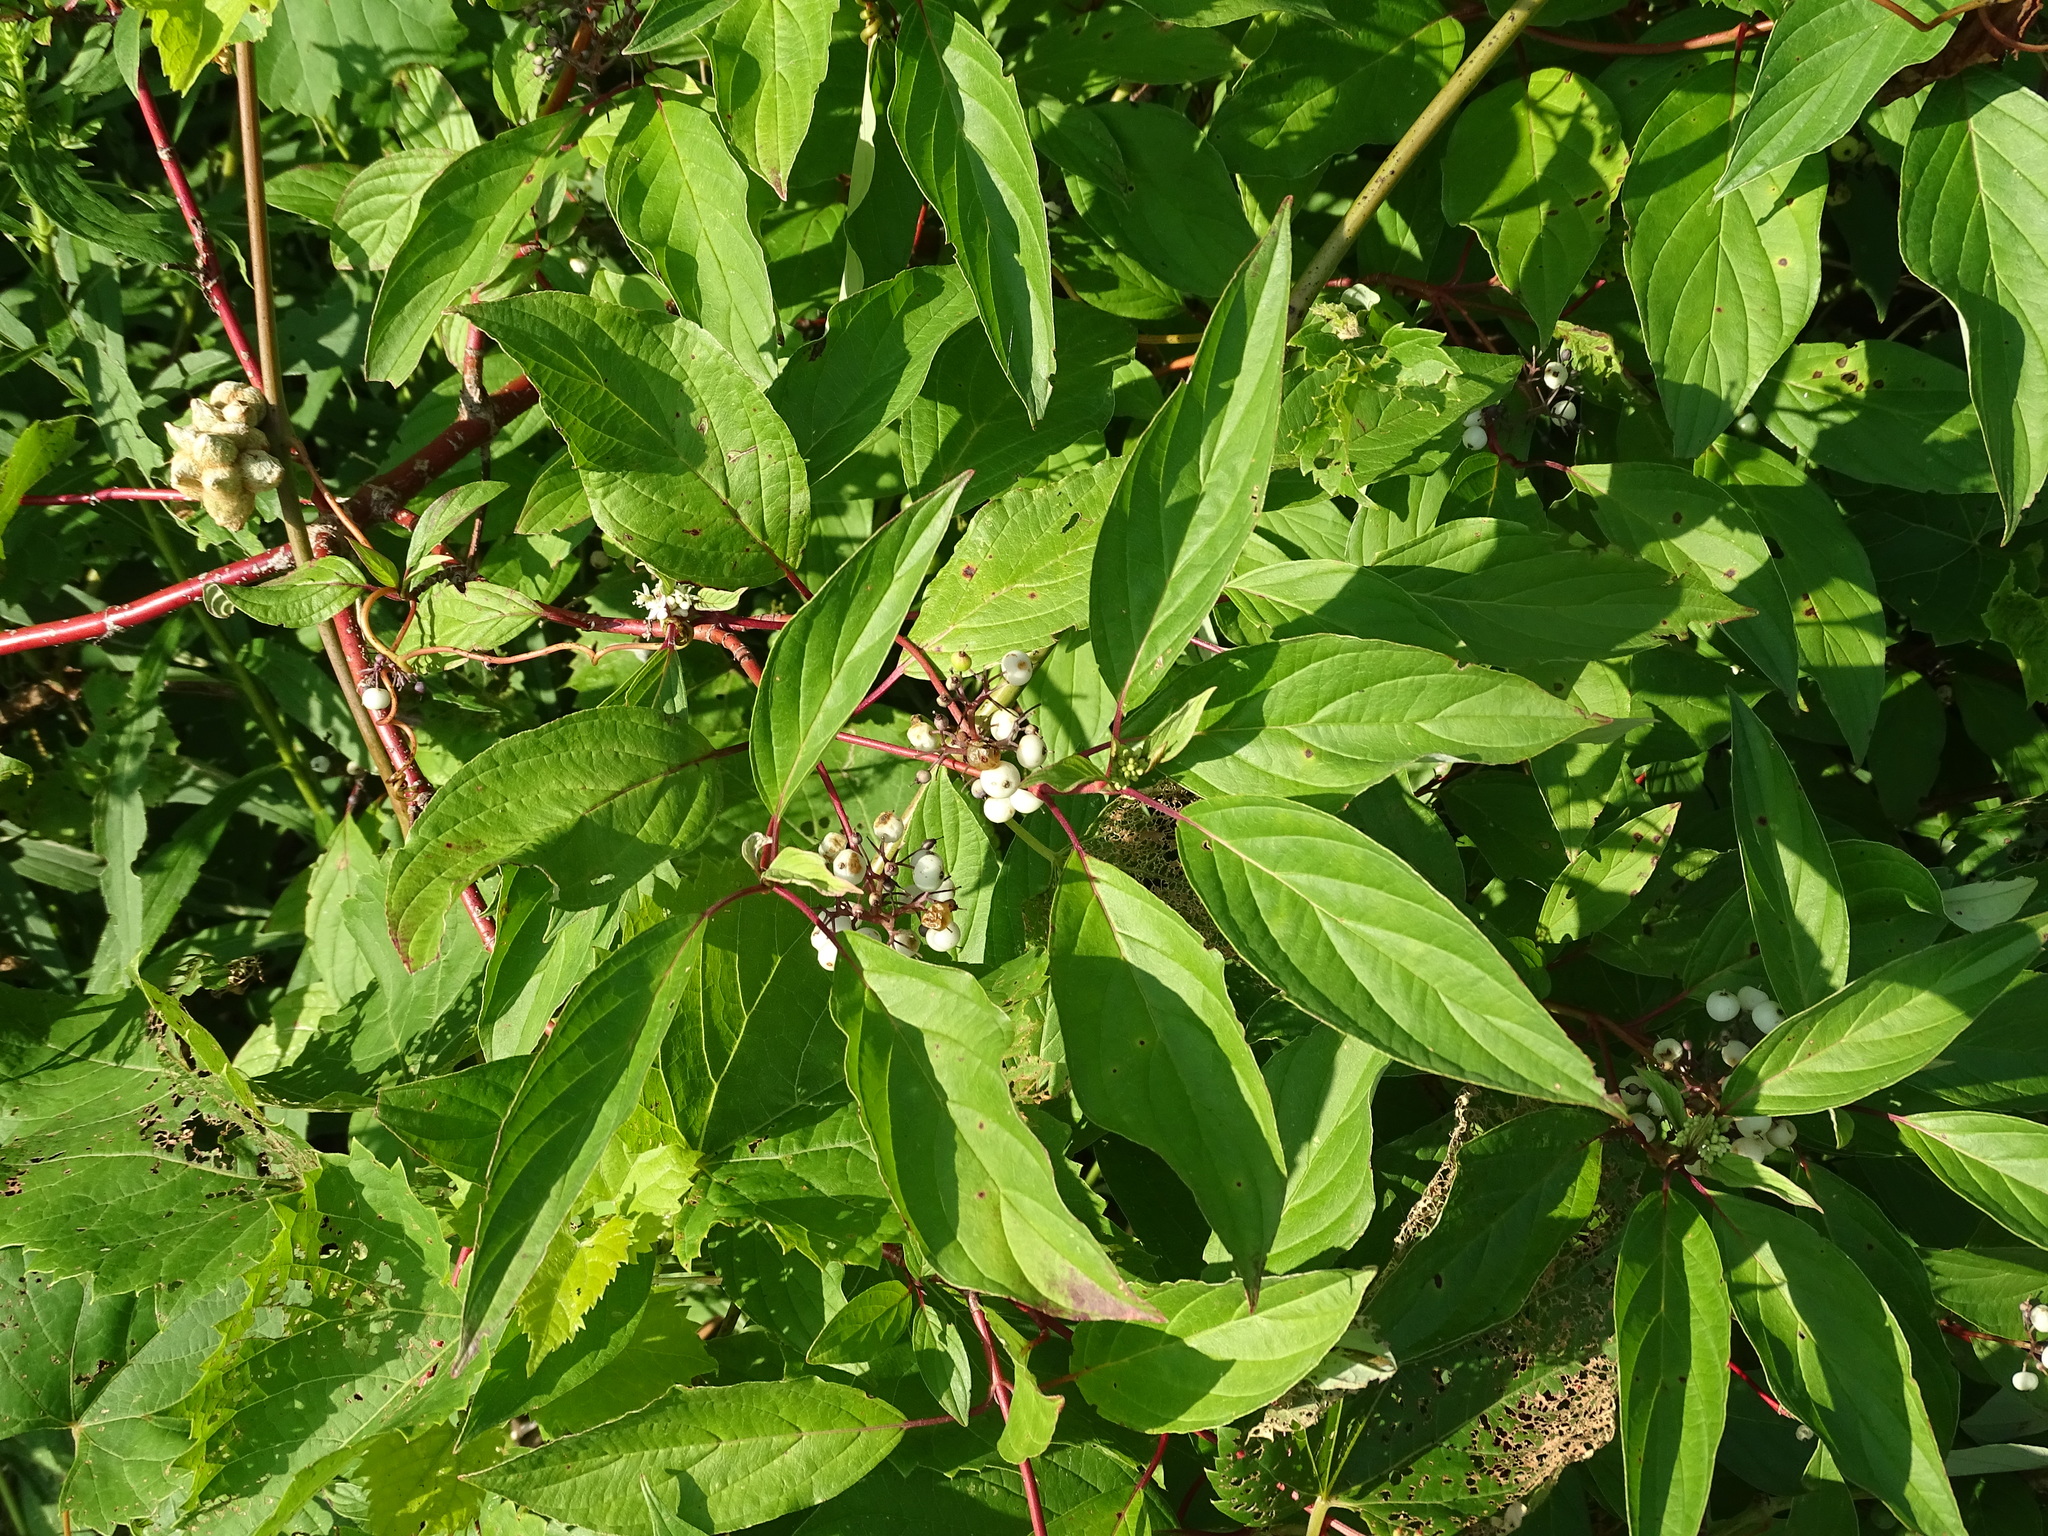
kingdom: Plantae
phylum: Tracheophyta
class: Magnoliopsida
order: Cornales
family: Cornaceae
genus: Cornus
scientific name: Cornus sericea
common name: Red-osier dogwood
